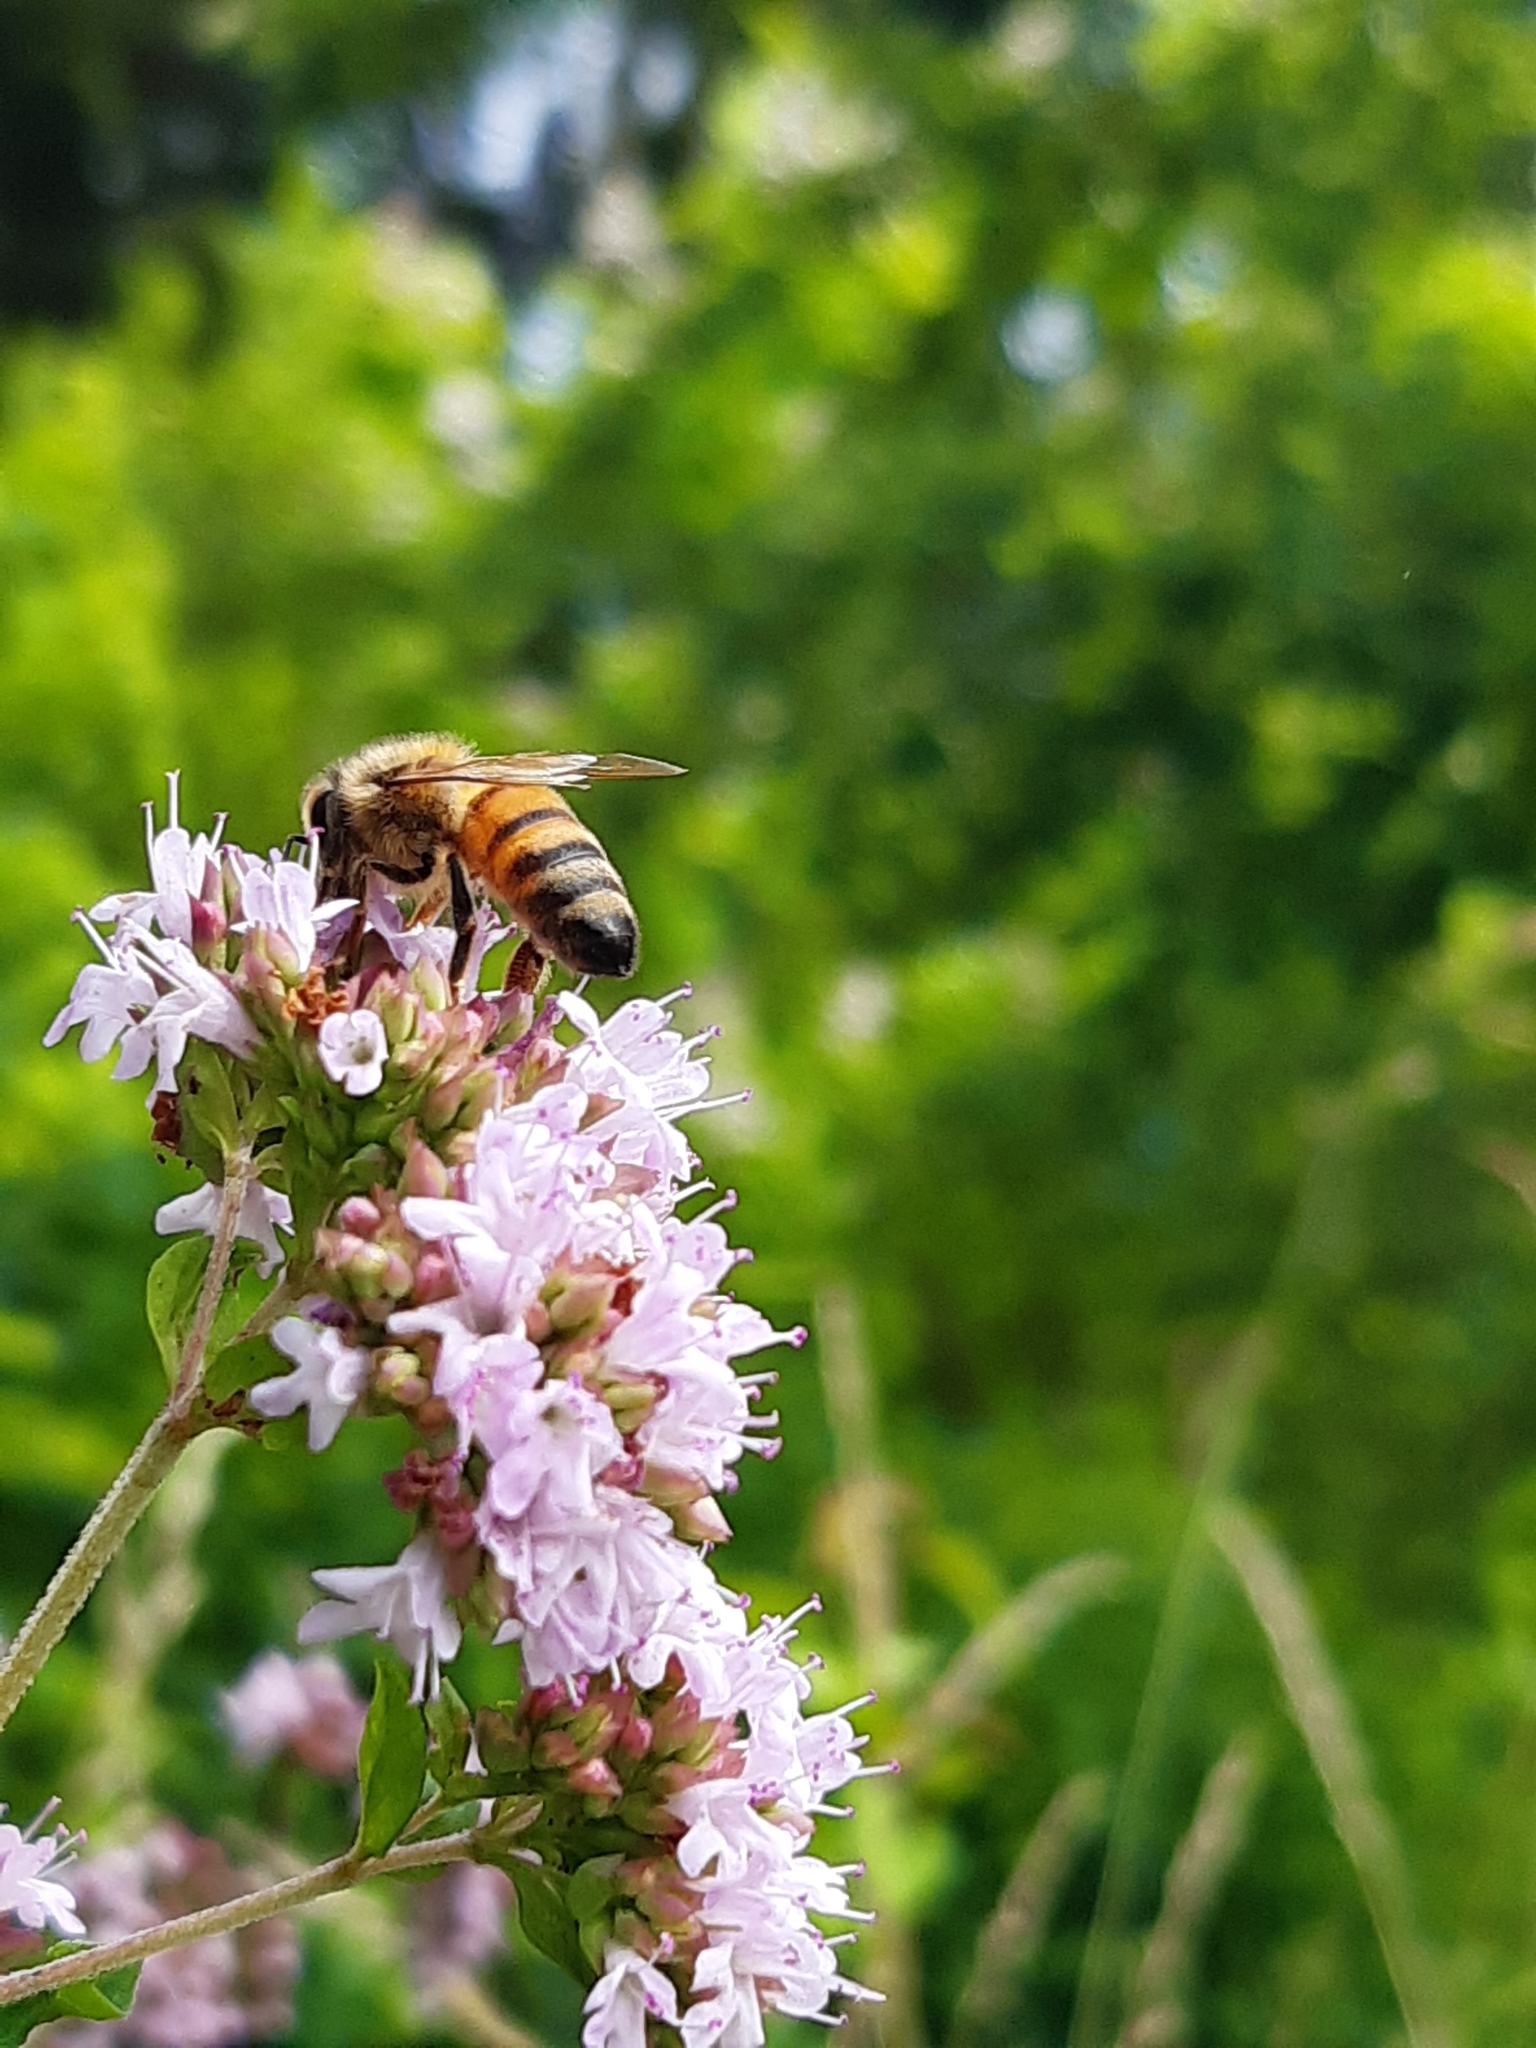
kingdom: Plantae
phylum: Tracheophyta
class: Magnoliopsida
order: Lamiales
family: Lamiaceae
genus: Origanum
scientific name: Origanum vulgare
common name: Wild marjoram
